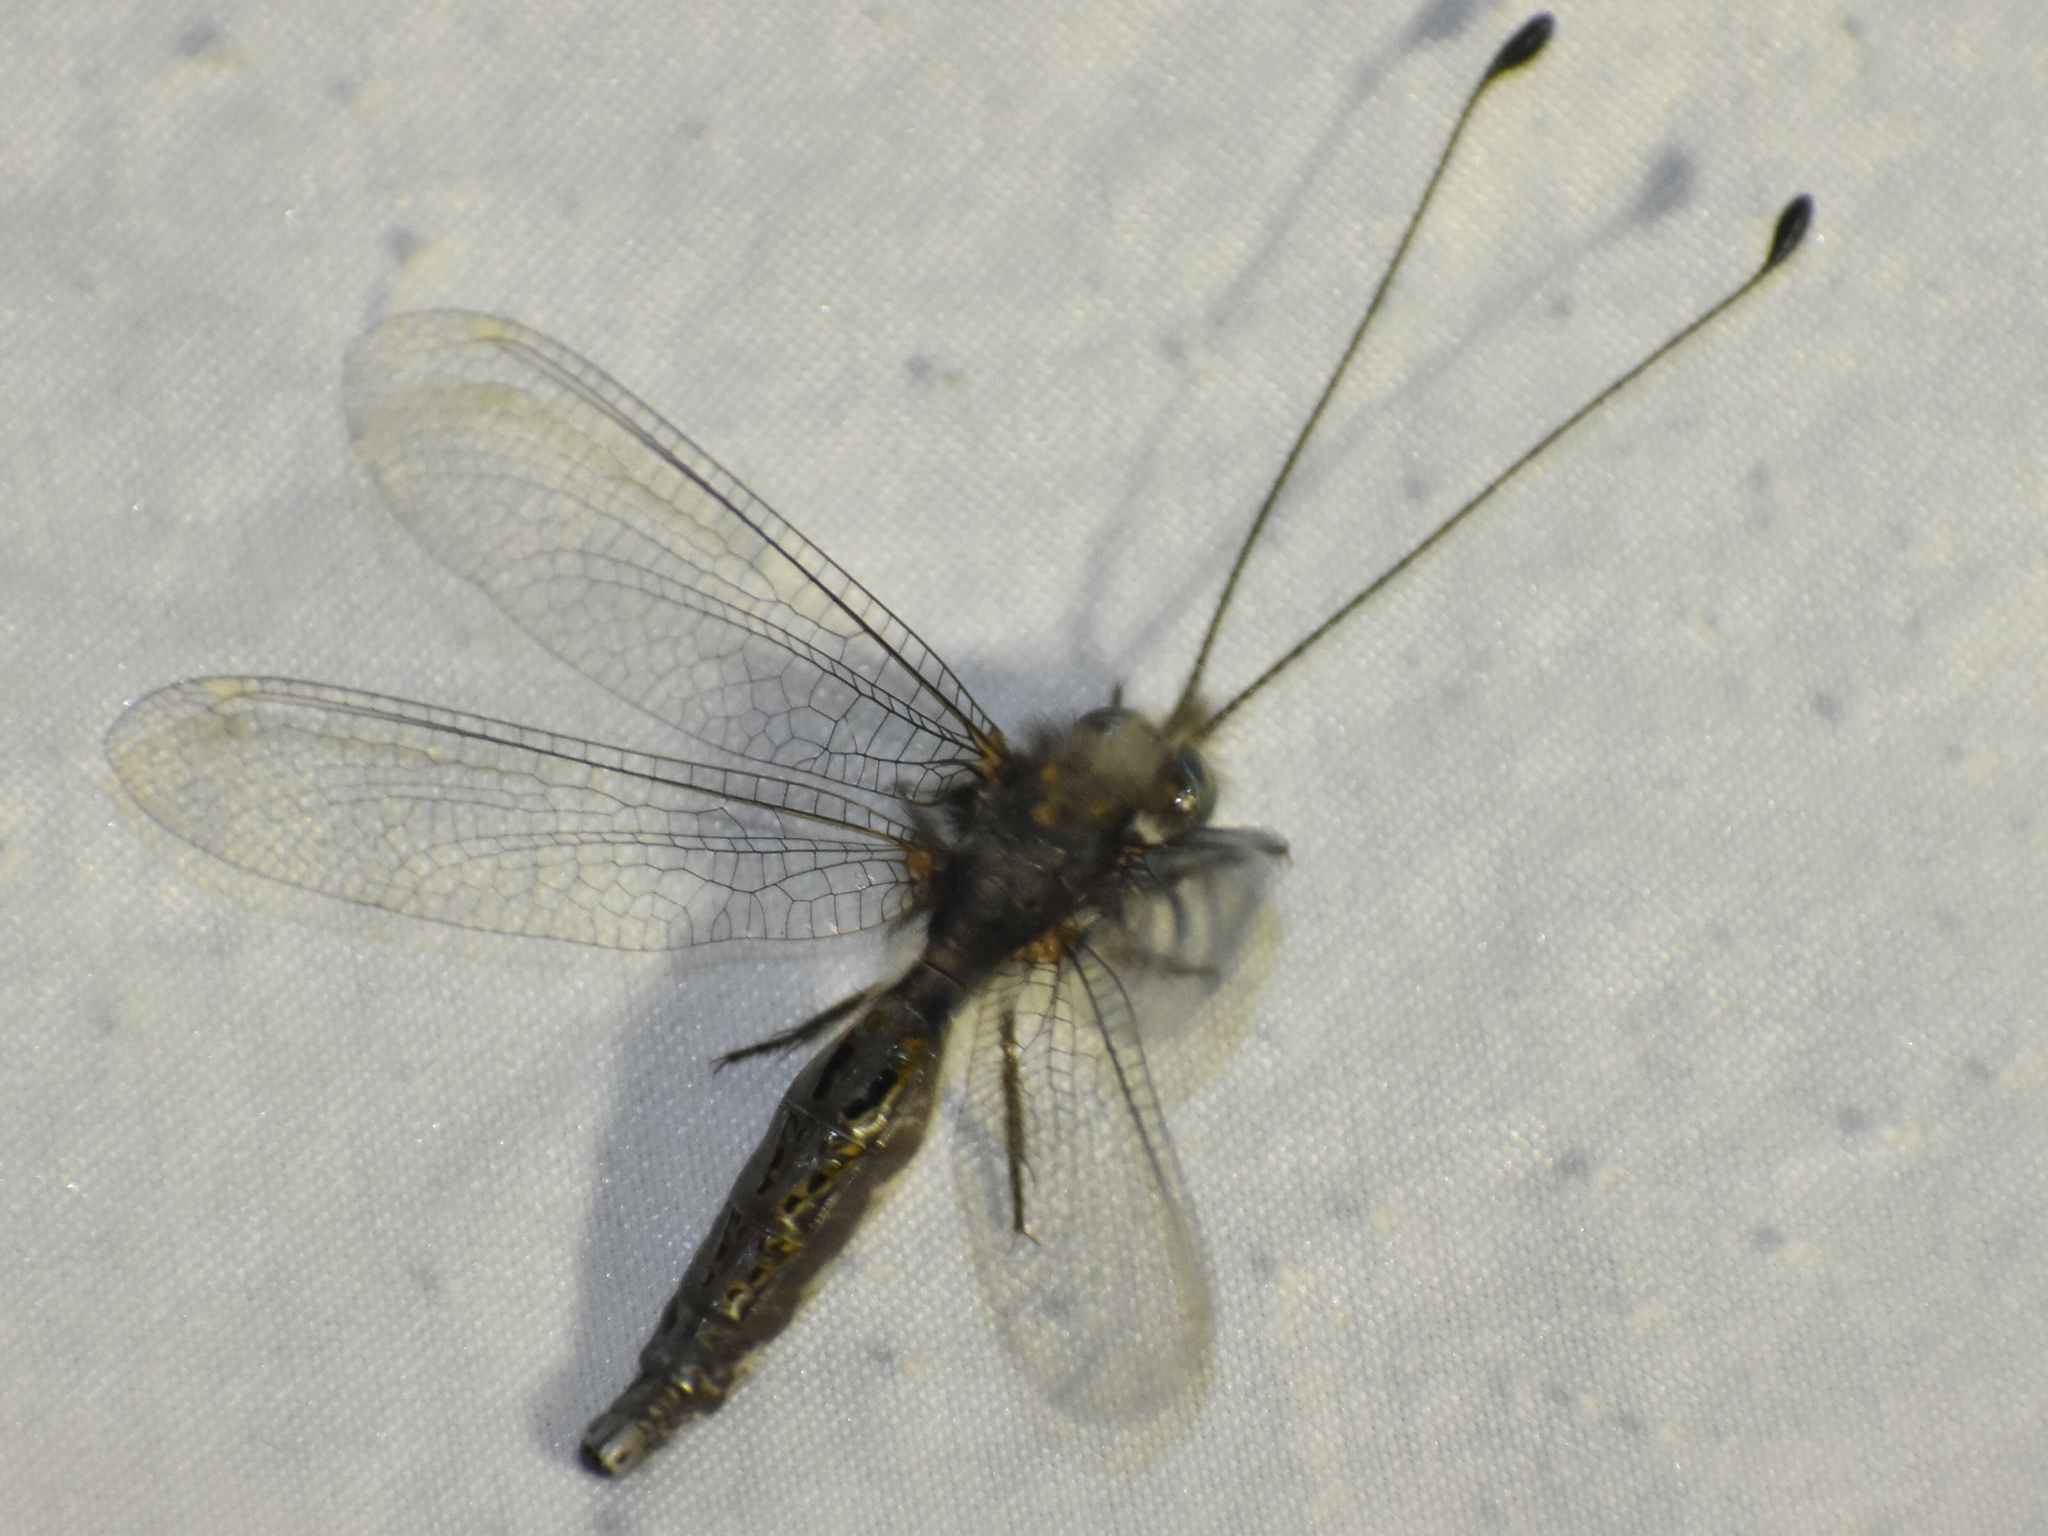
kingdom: Animalia
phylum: Arthropoda
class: Insecta
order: Neuroptera
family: Ascalaphidae
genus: Ululodes
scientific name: Ululodes quadripunctatus
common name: Four-spotted owlfly
